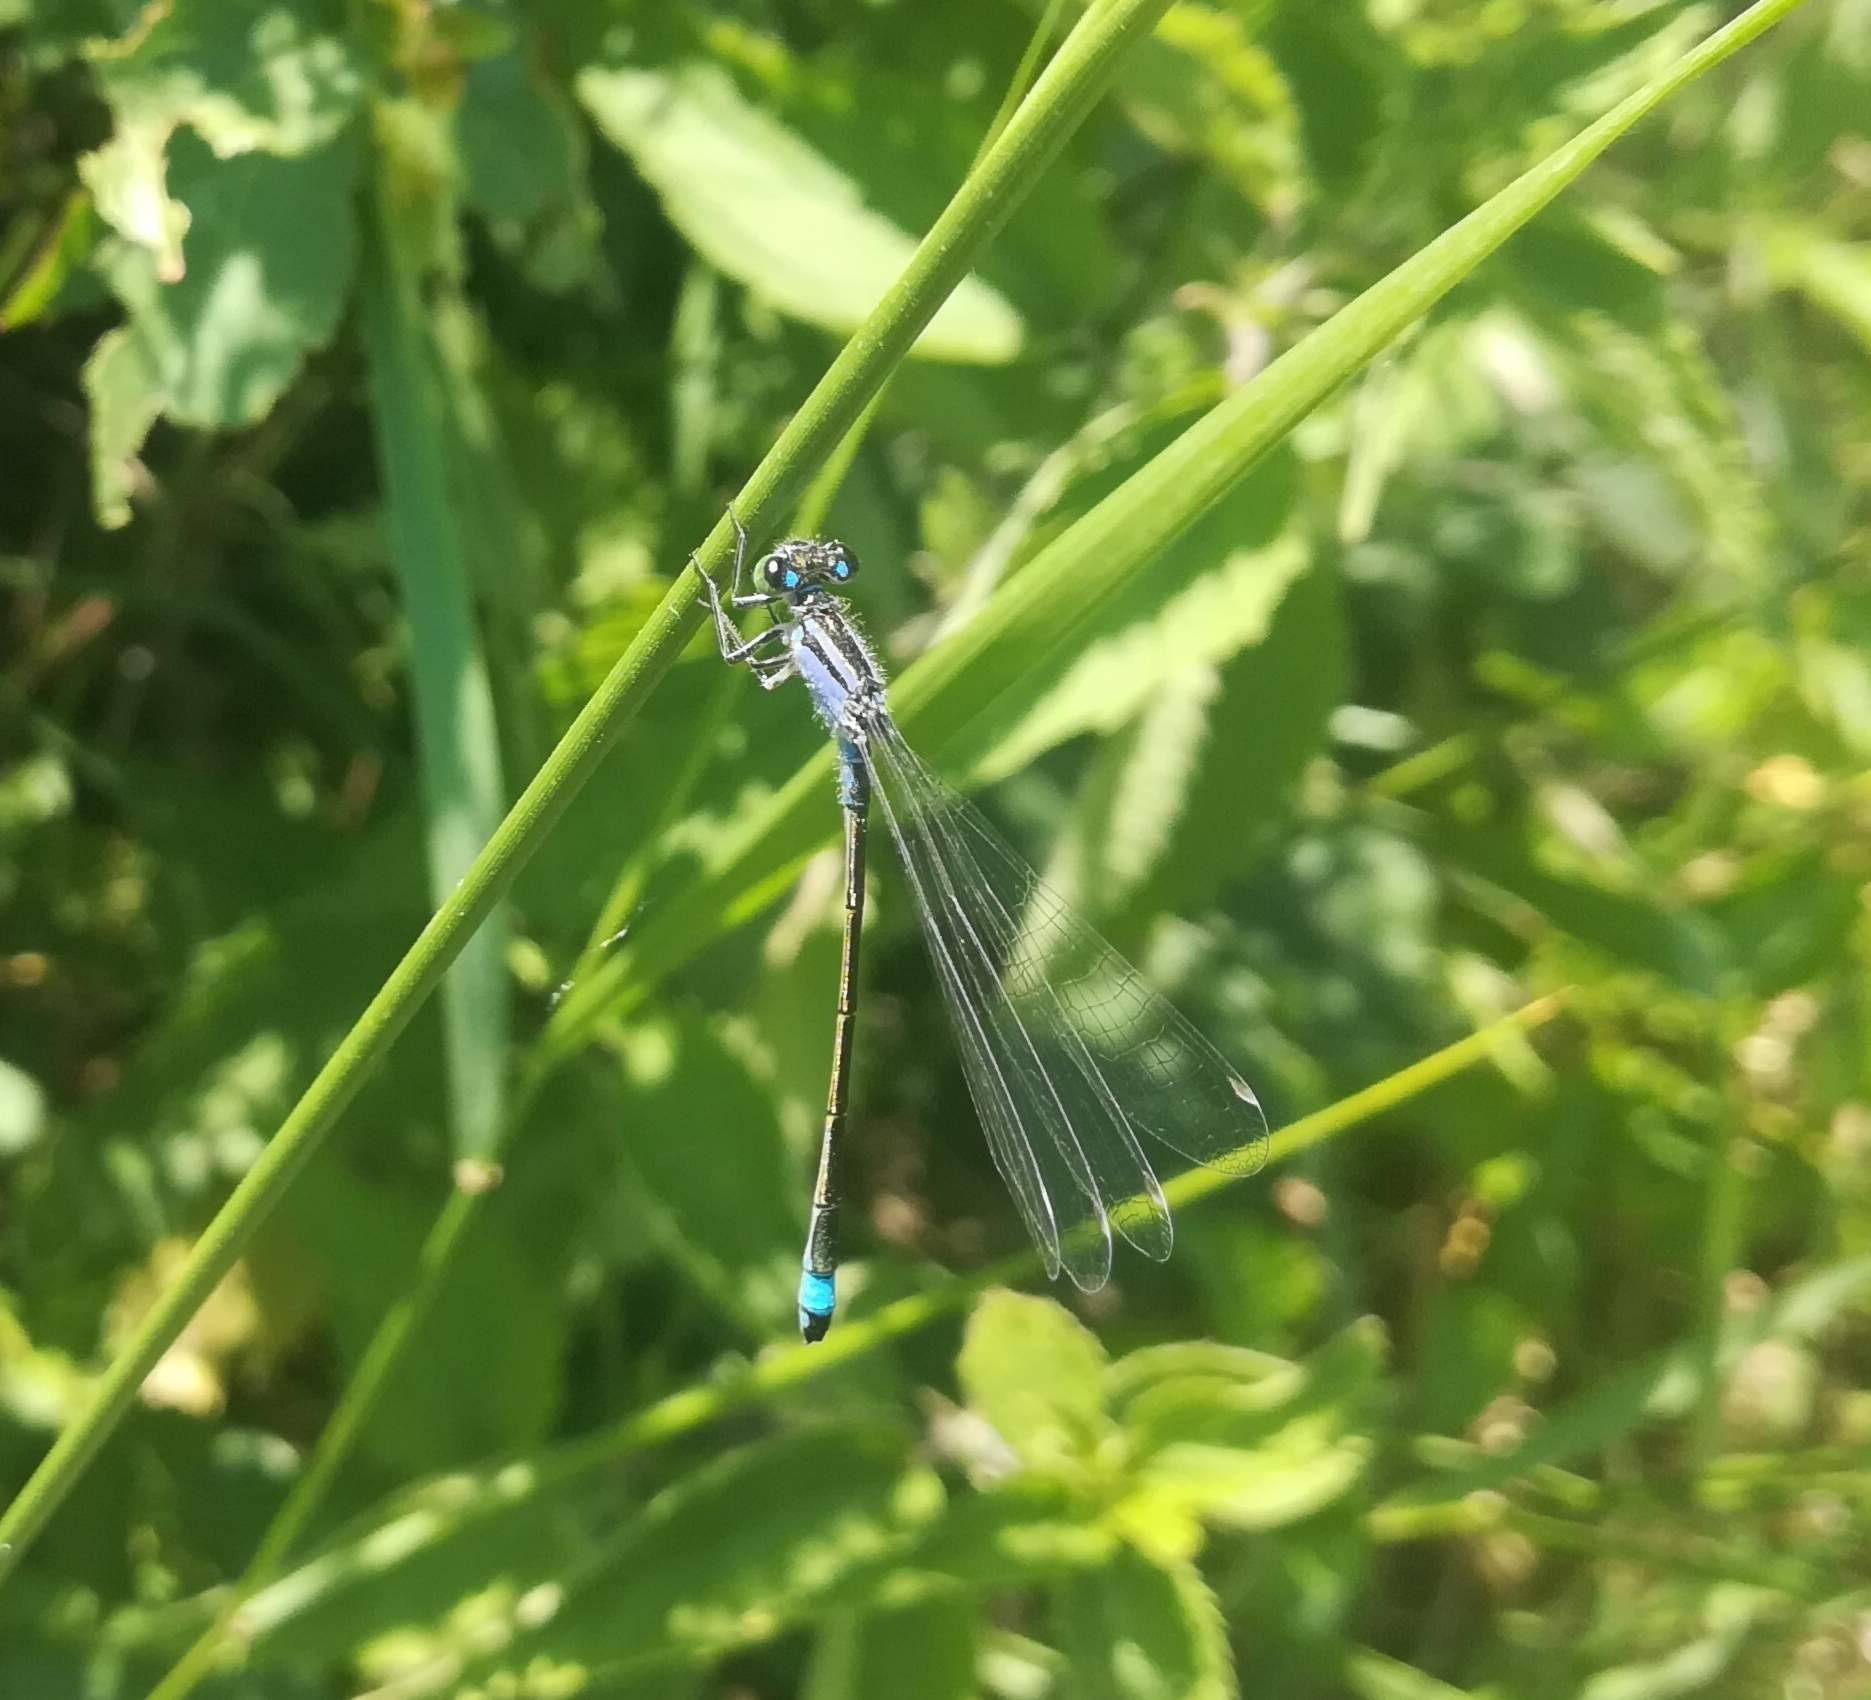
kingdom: Animalia
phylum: Arthropoda
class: Insecta
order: Odonata
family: Coenagrionidae
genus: Ischnura
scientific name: Ischnura elegans
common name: Blue-tailed damselfly
